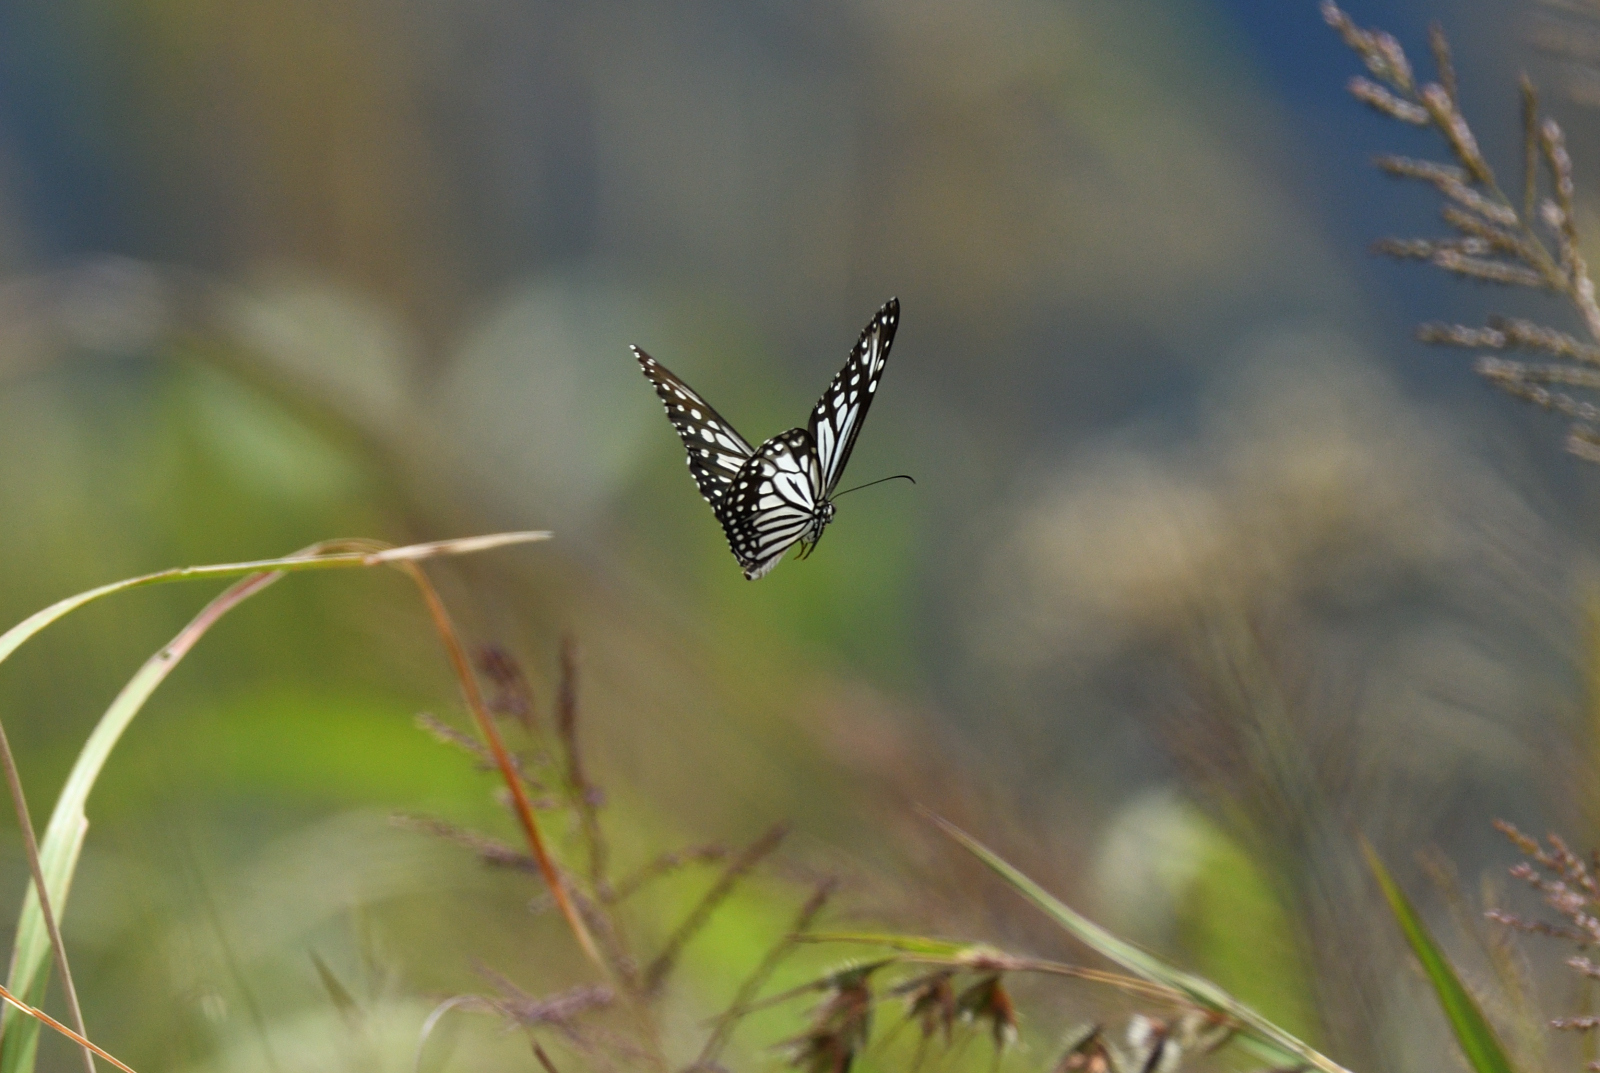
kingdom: Animalia
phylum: Arthropoda
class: Insecta
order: Lepidoptera
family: Nymphalidae
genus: Parantica
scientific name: Parantica aglea
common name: Glassy tiger
